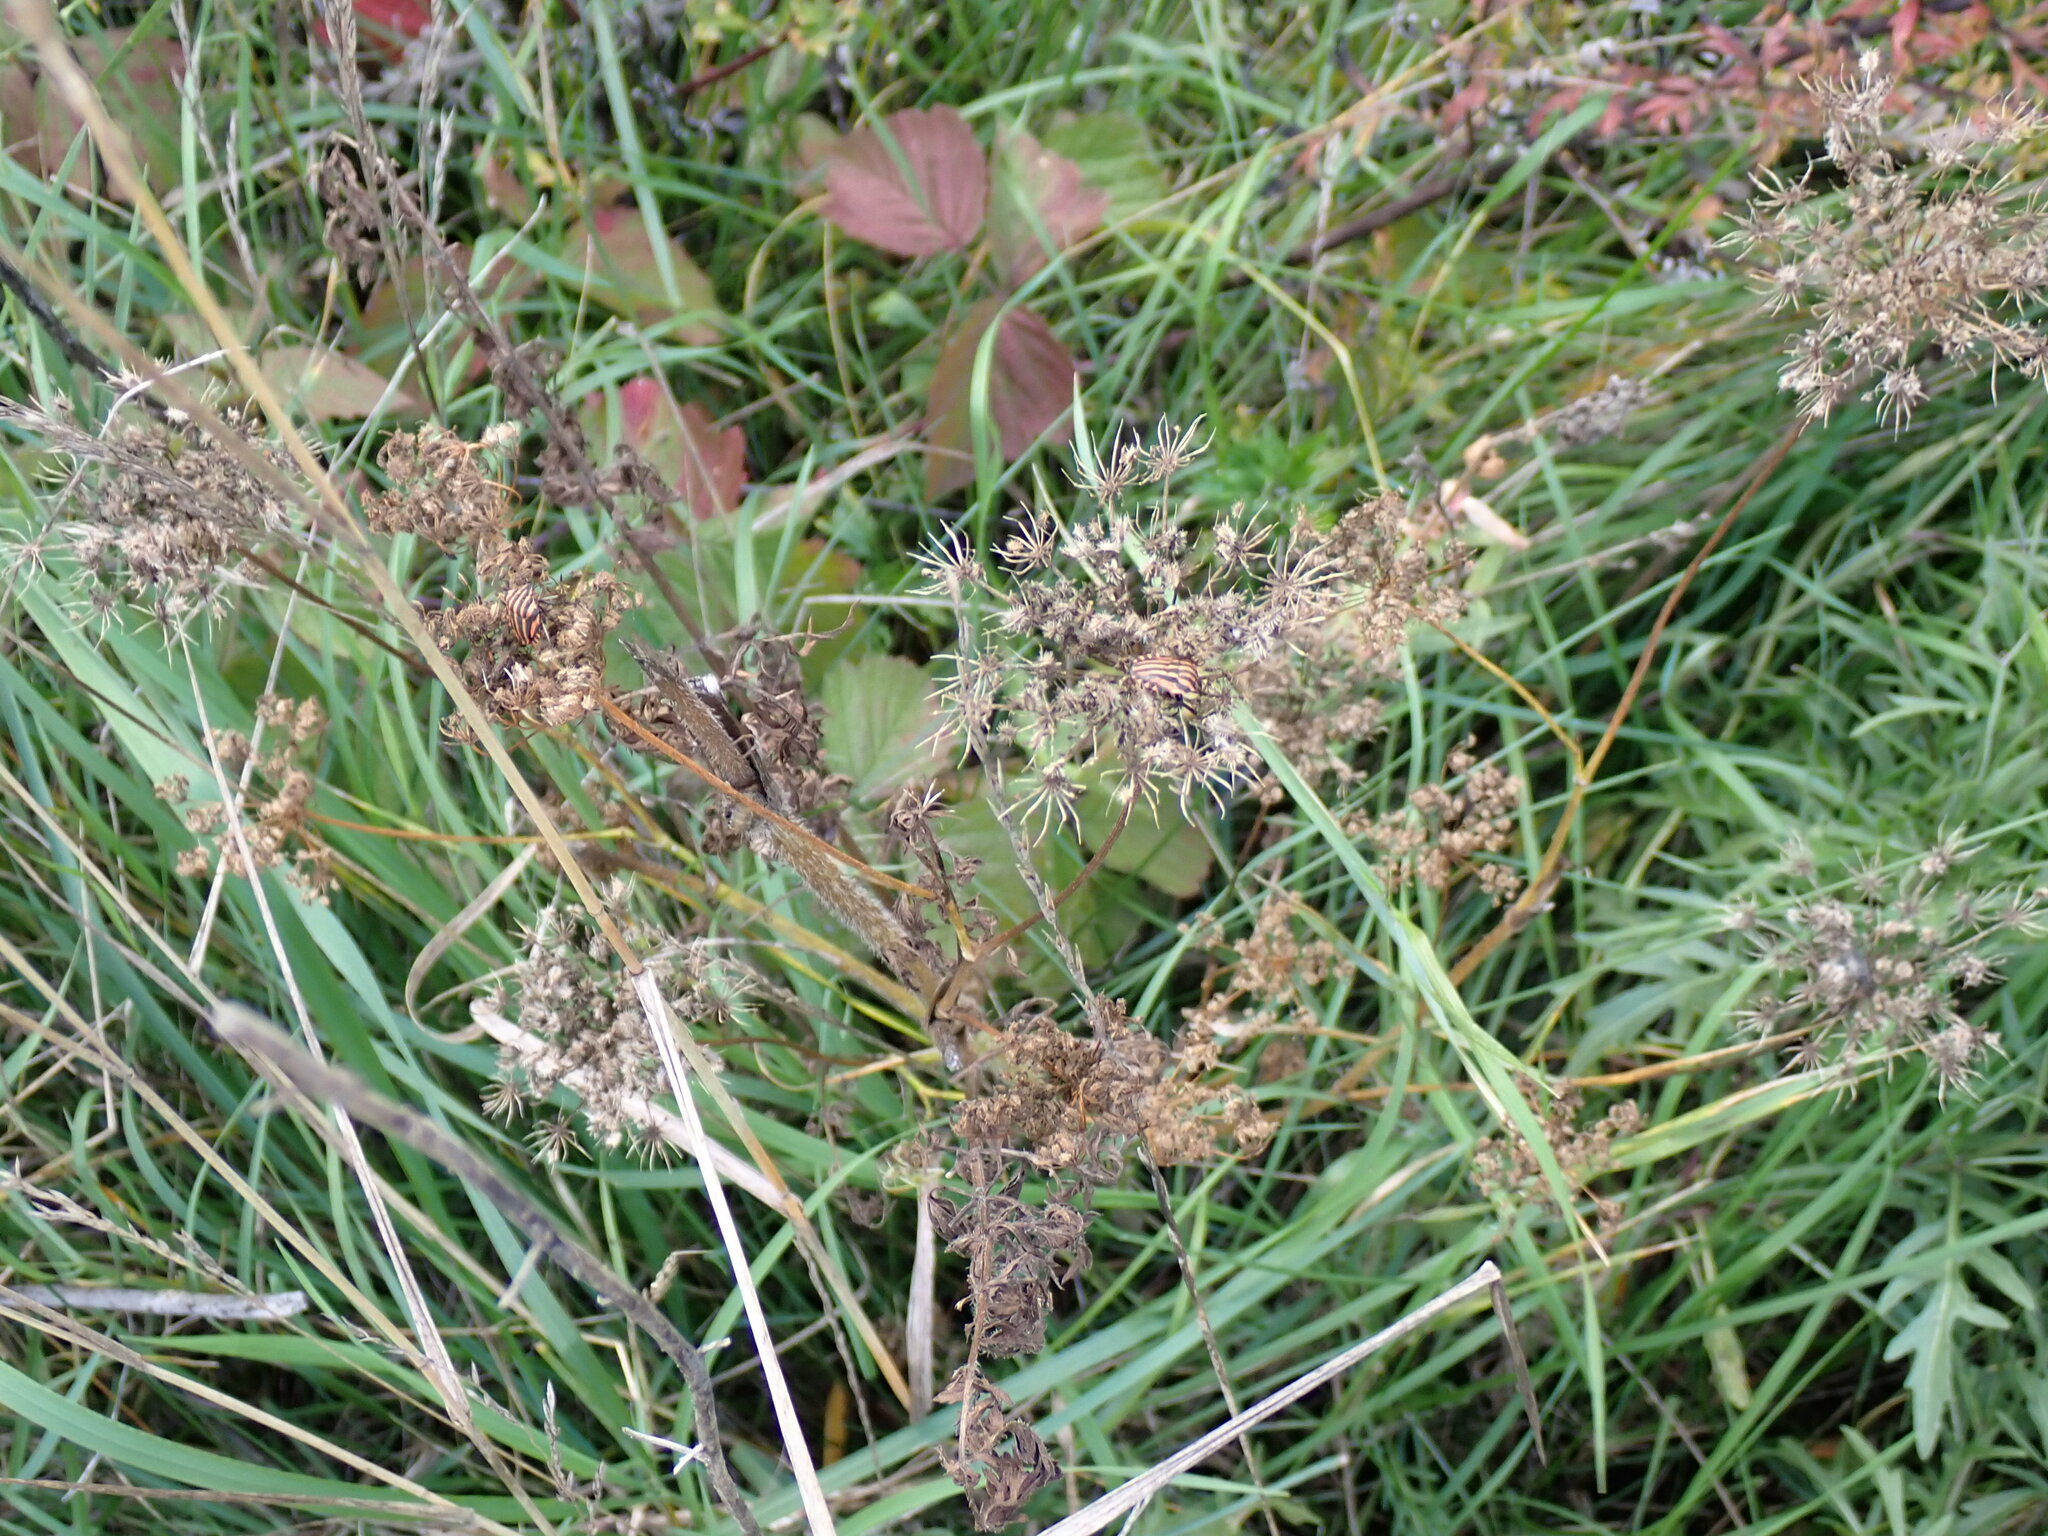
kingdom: Plantae
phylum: Tracheophyta
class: Magnoliopsida
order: Apiales
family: Apiaceae
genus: Daucus
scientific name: Daucus carota
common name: Wild carrot
